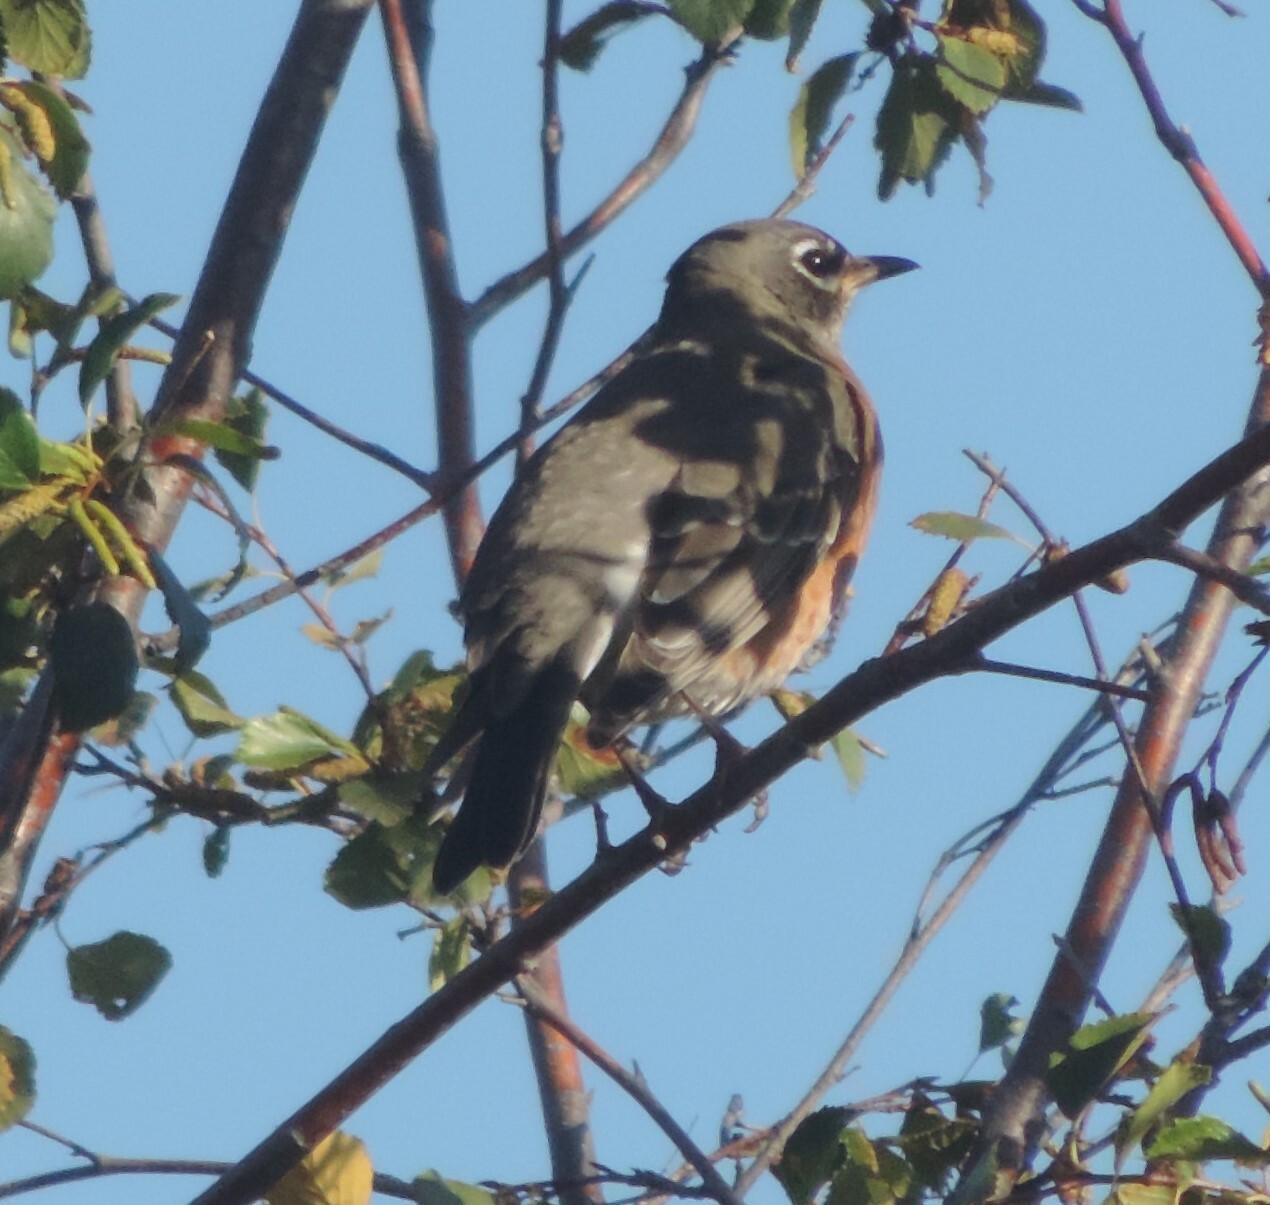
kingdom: Animalia
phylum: Chordata
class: Aves
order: Passeriformes
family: Turdidae
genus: Turdus
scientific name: Turdus migratorius
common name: American robin
